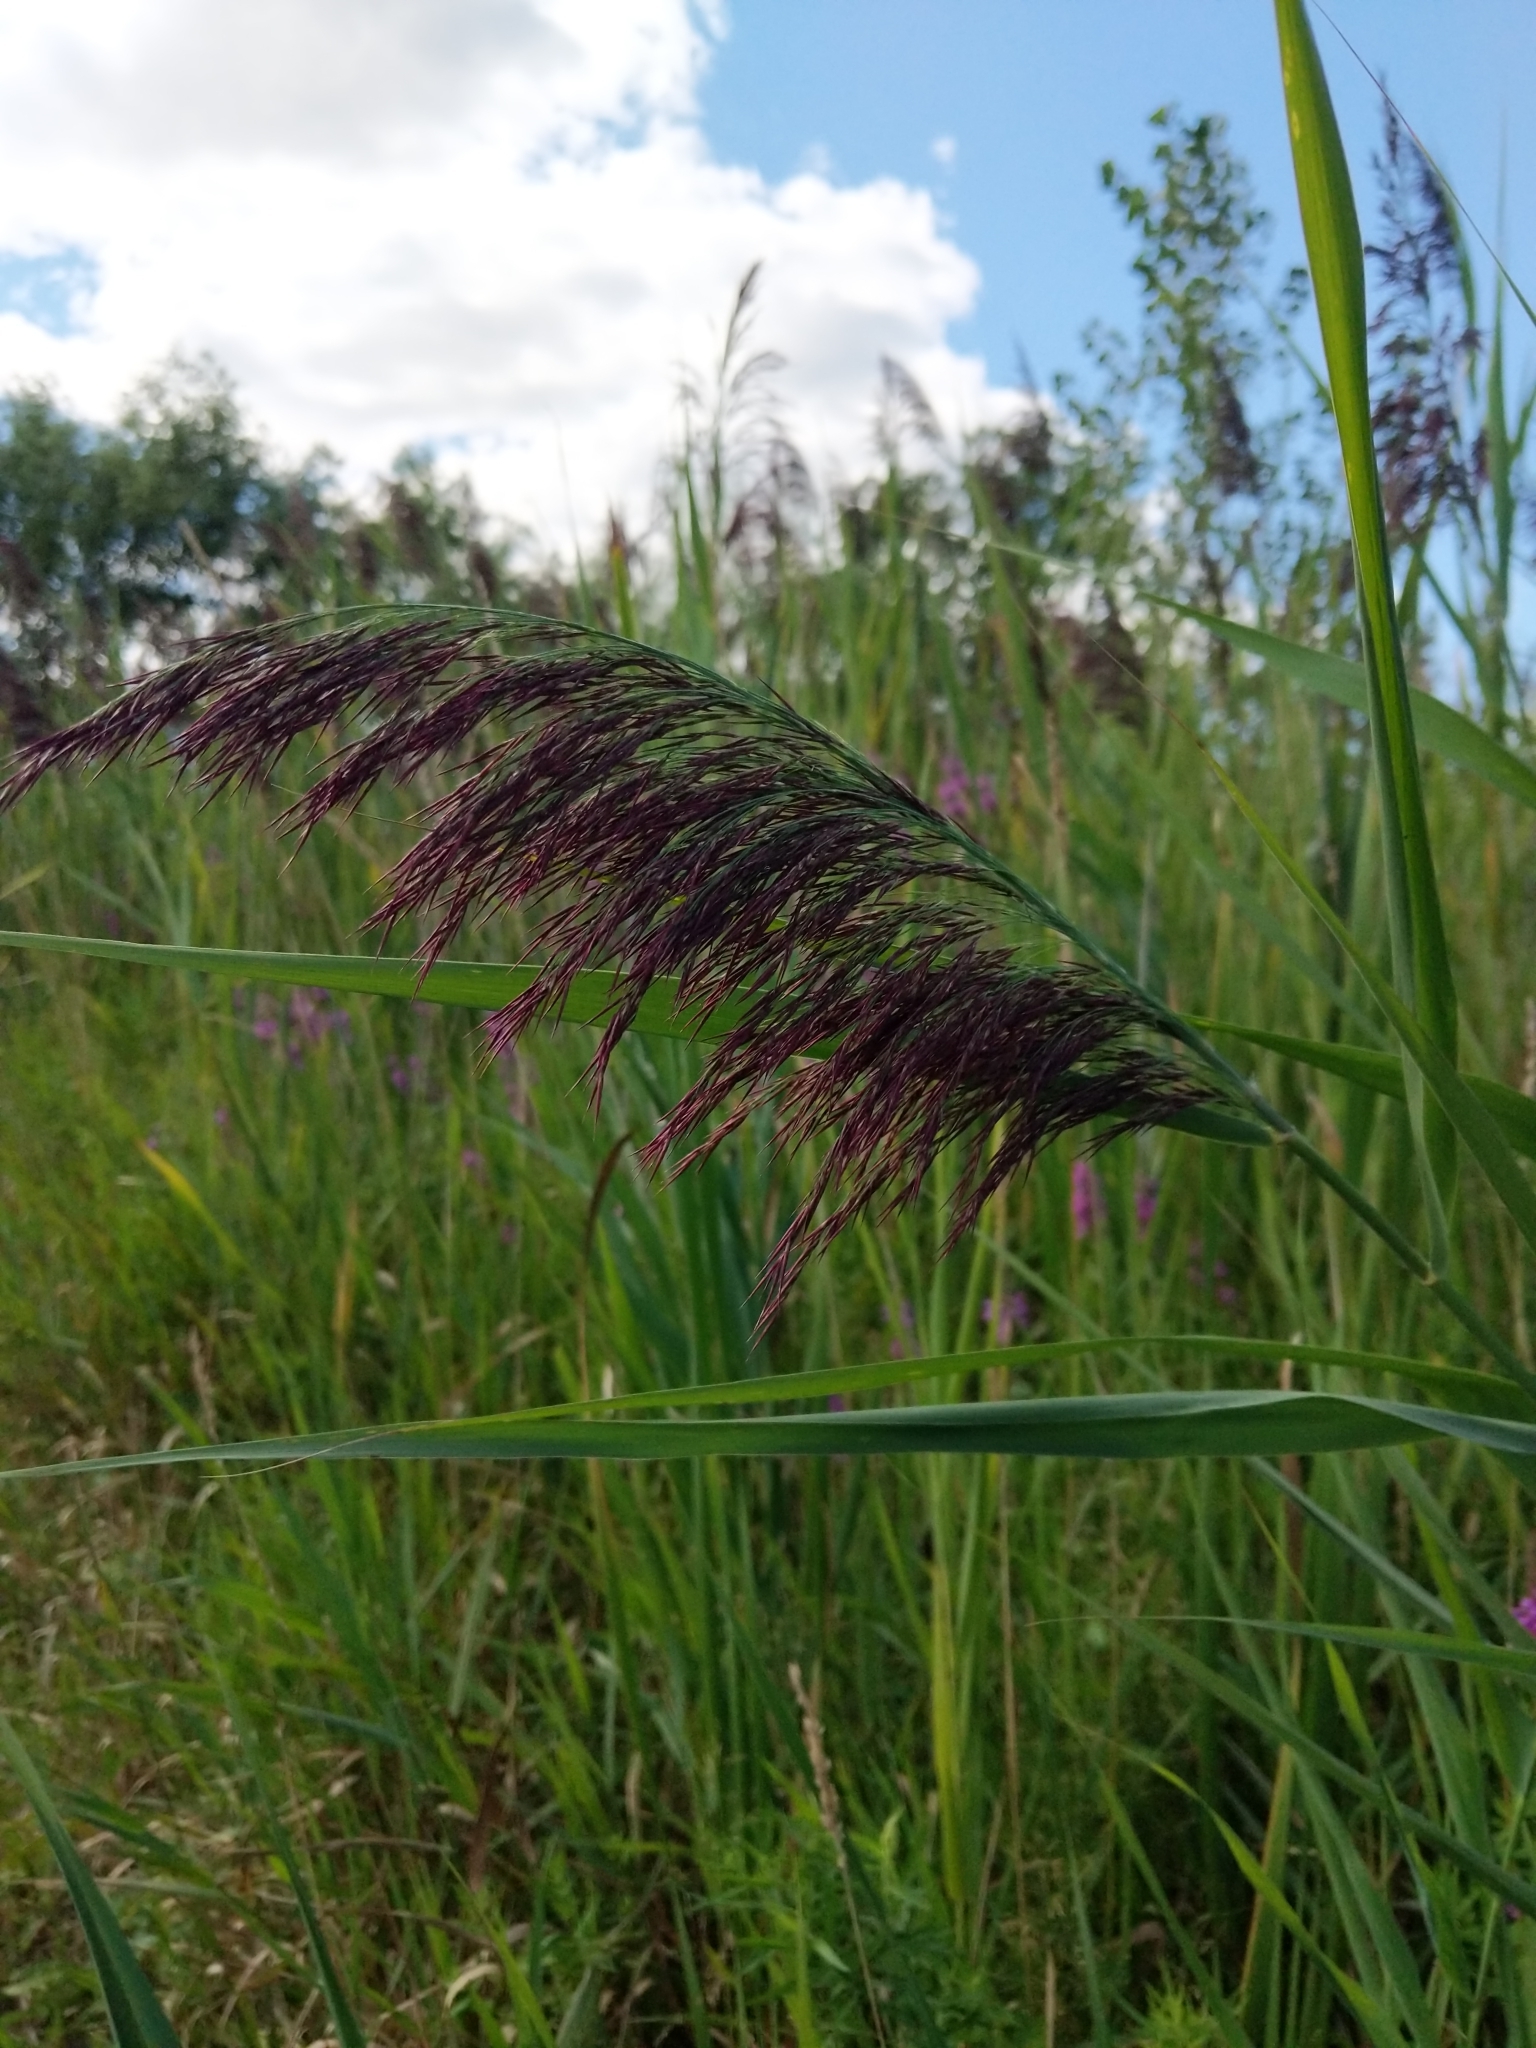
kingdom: Plantae
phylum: Tracheophyta
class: Liliopsida
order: Poales
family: Poaceae
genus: Phragmites
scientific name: Phragmites australis
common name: Common reed
